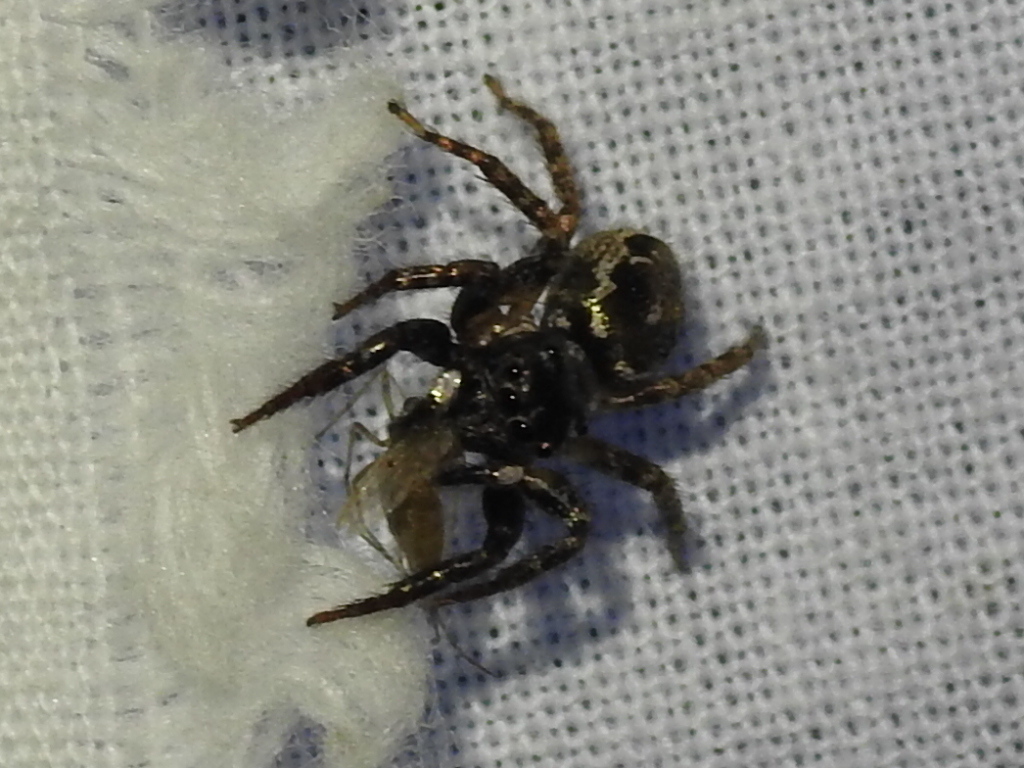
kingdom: Animalia
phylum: Arthropoda
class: Arachnida
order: Araneae
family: Salticidae
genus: Anasaitis
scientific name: Anasaitis canosa
